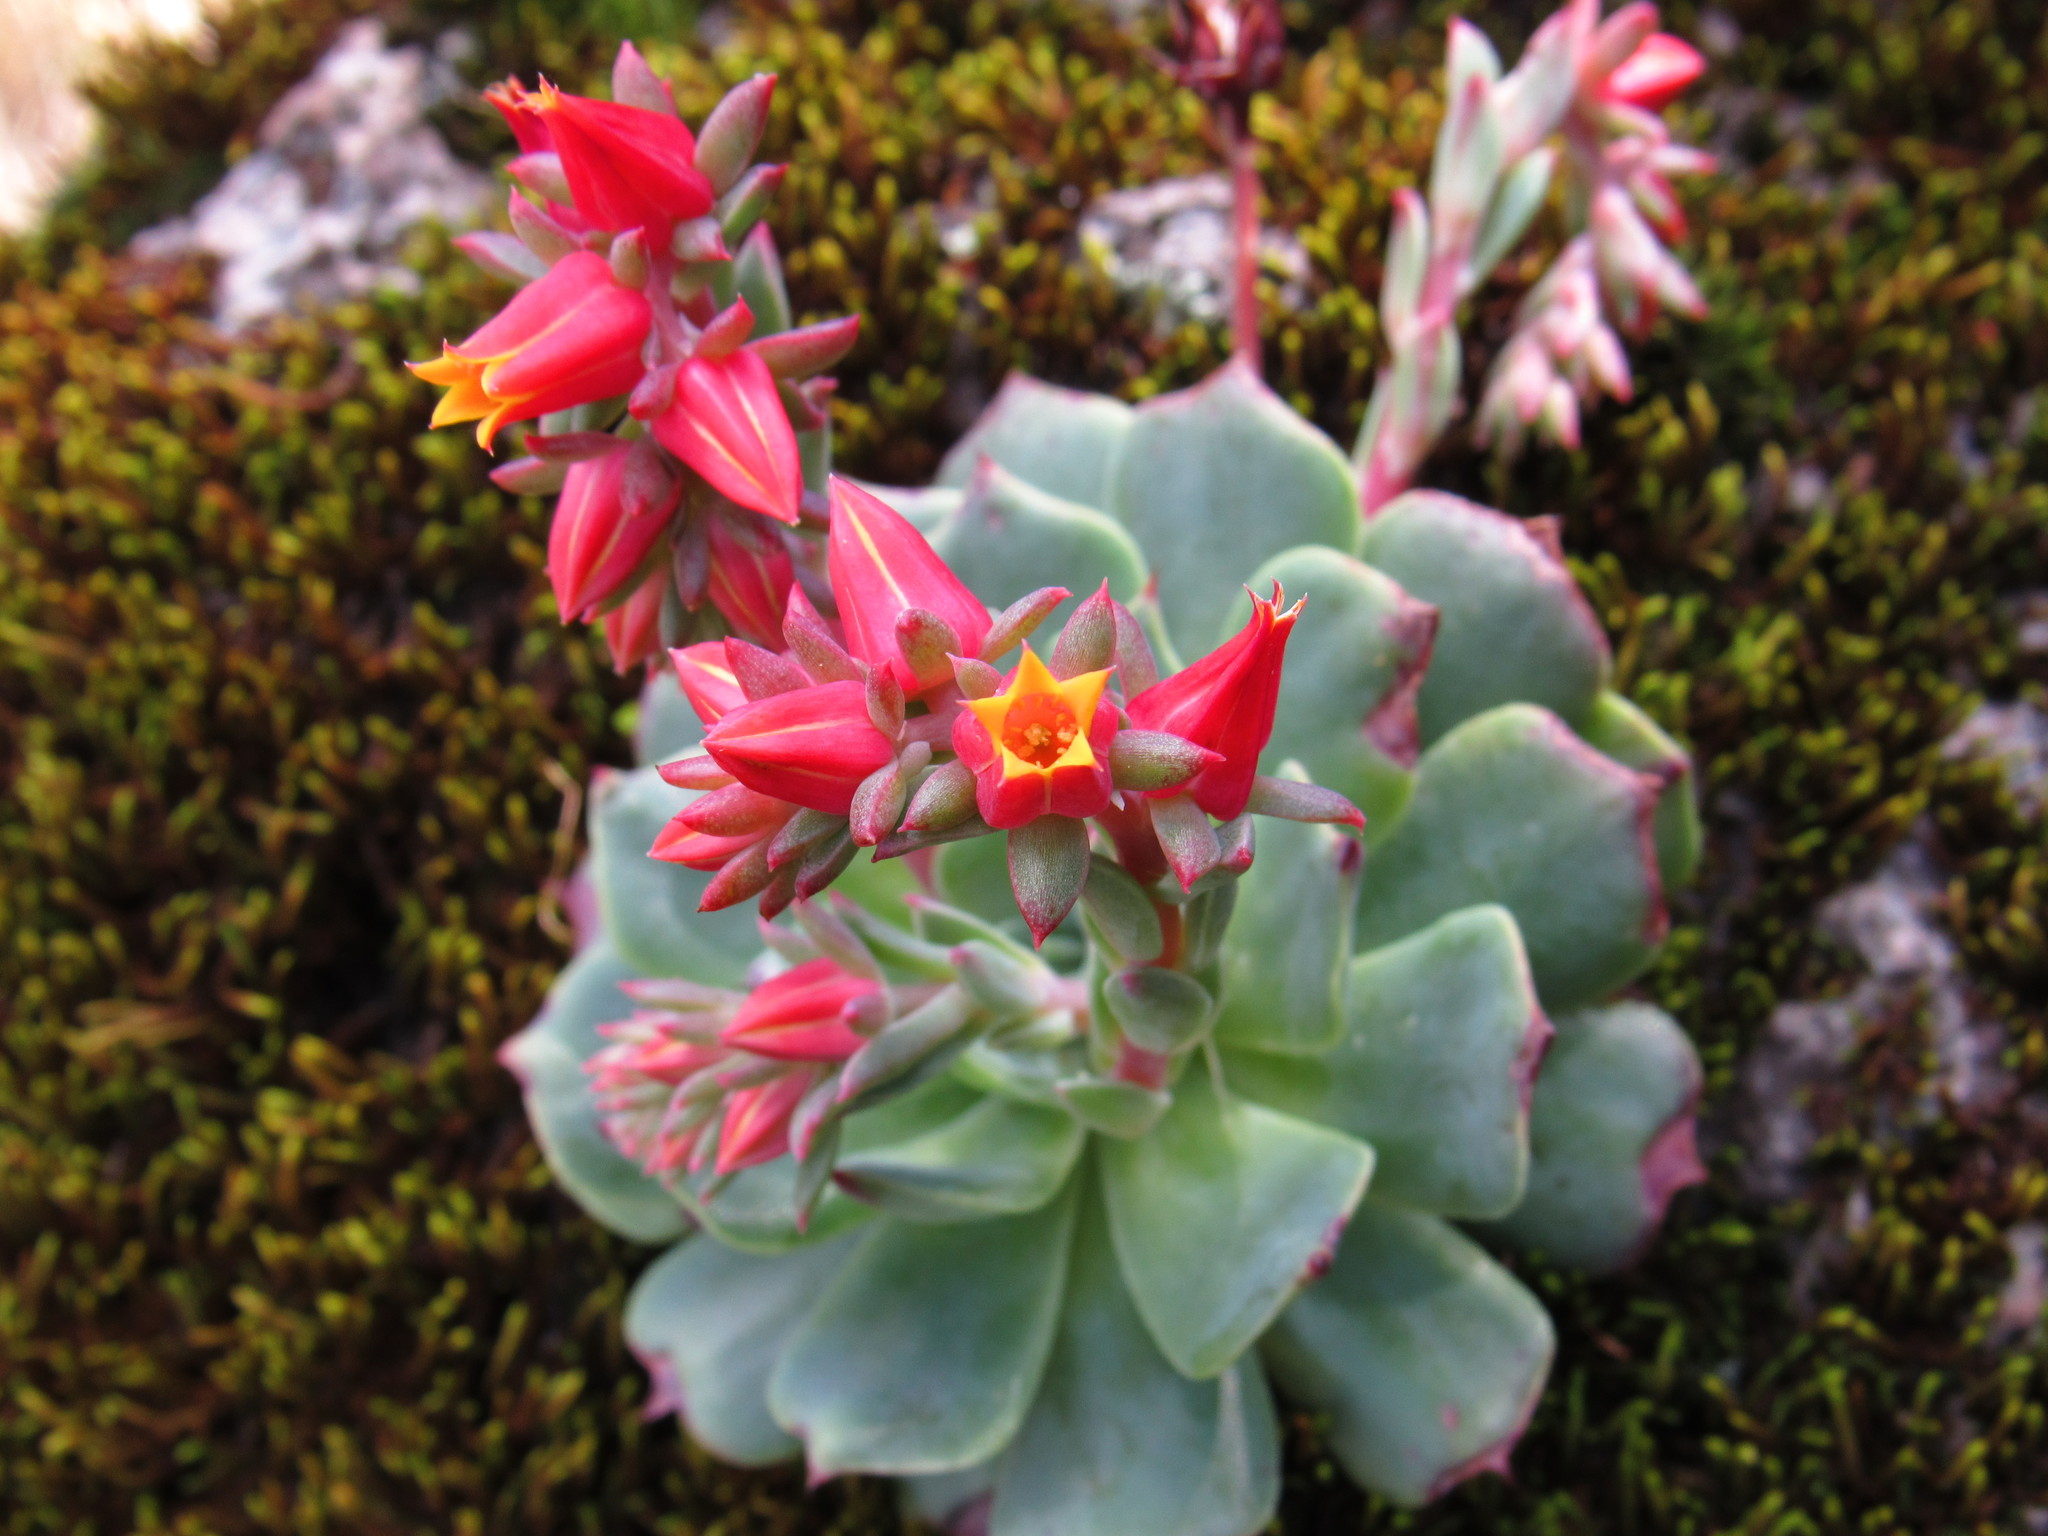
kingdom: Plantae
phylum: Tracheophyta
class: Magnoliopsida
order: Saxifragales
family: Crassulaceae
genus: Echeveria
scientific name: Echeveria secunda
